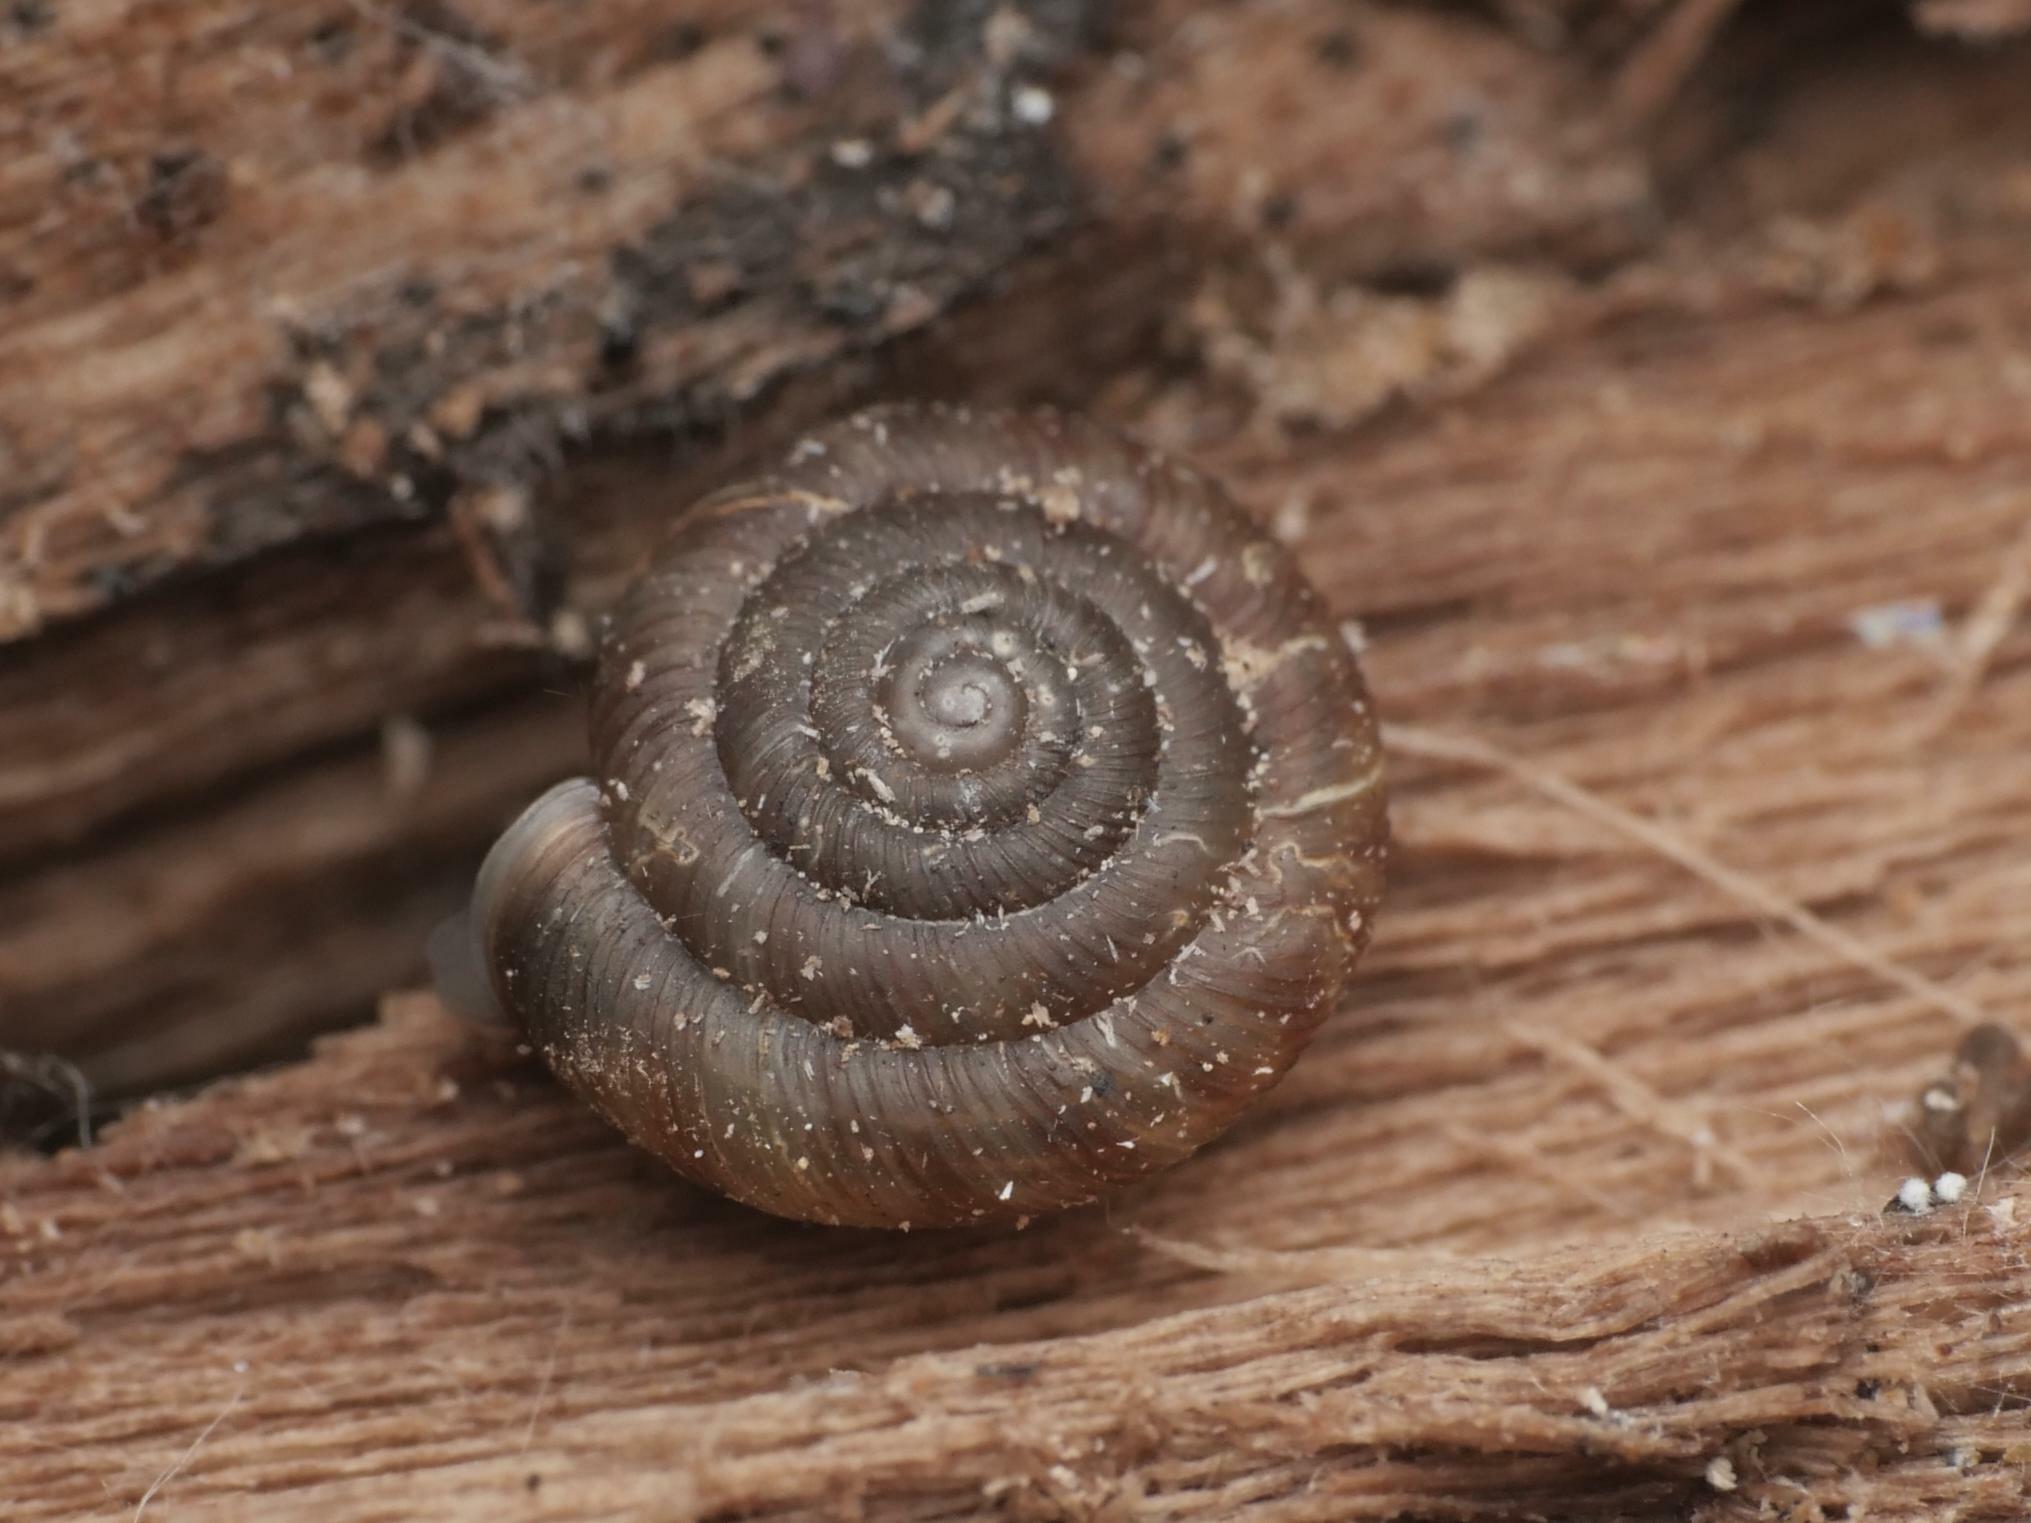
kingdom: Animalia
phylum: Mollusca
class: Gastropoda
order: Stylommatophora
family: Discidae
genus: Discus
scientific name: Discus rotundatus
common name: Rounded snail
